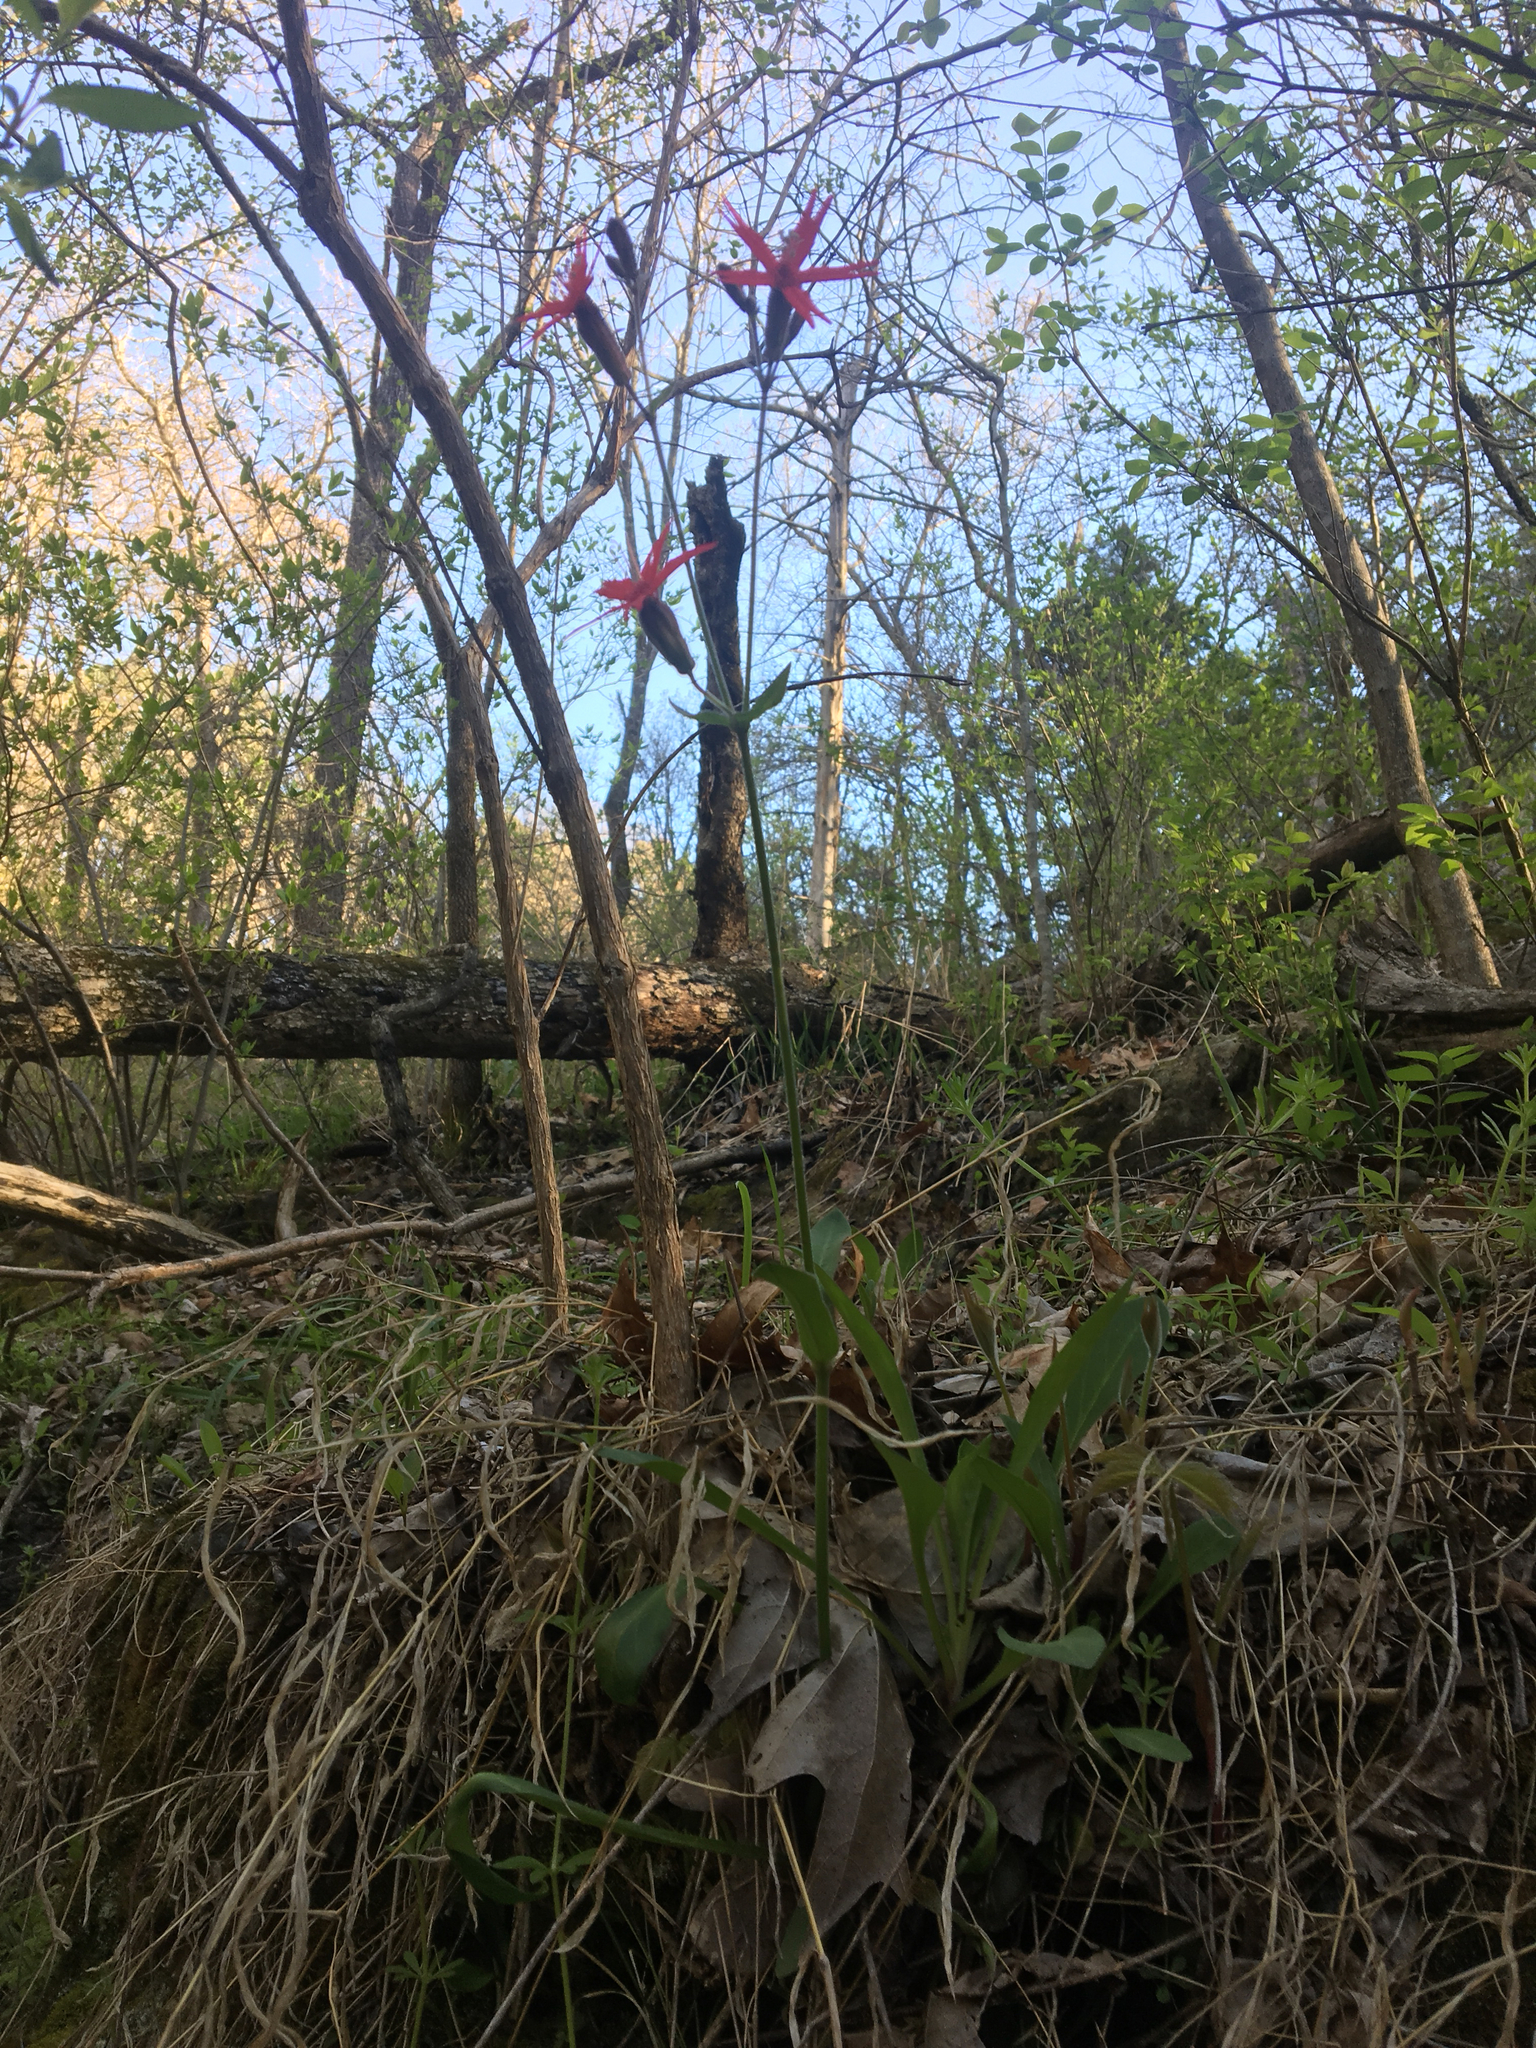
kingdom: Plantae
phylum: Tracheophyta
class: Magnoliopsida
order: Caryophyllales
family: Caryophyllaceae
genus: Silene
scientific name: Silene virginica
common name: Fire-pink
